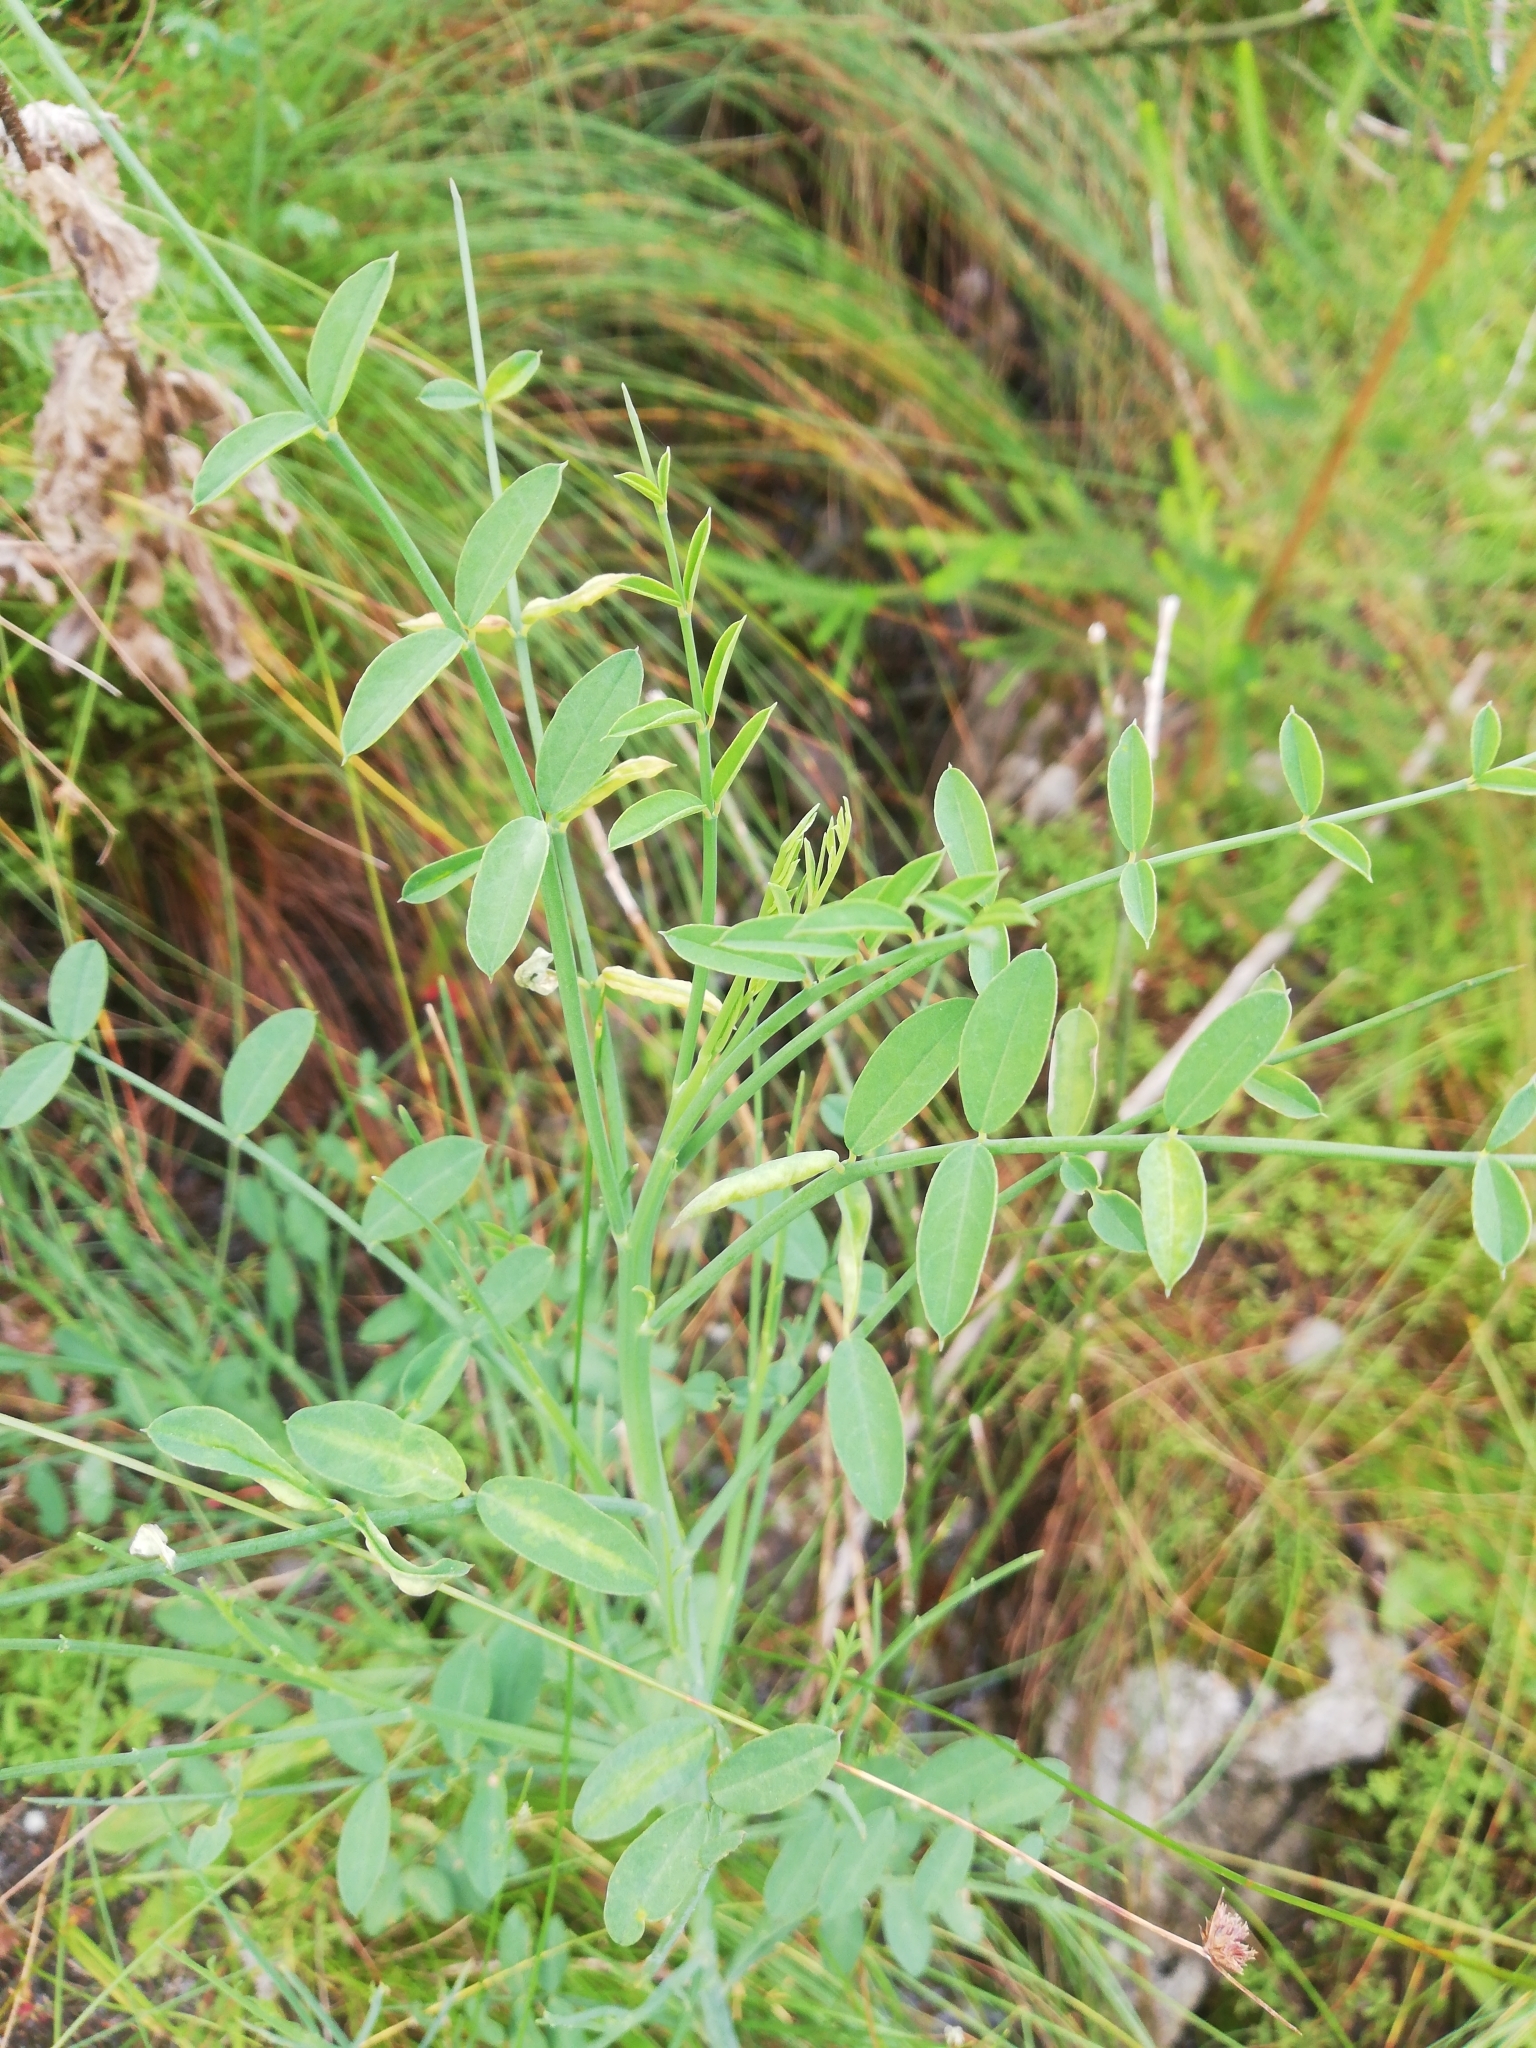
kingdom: Plantae
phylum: Tracheophyta
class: Magnoliopsida
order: Fabales
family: Fabaceae
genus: Indigofera
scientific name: Indigofera filifolia
